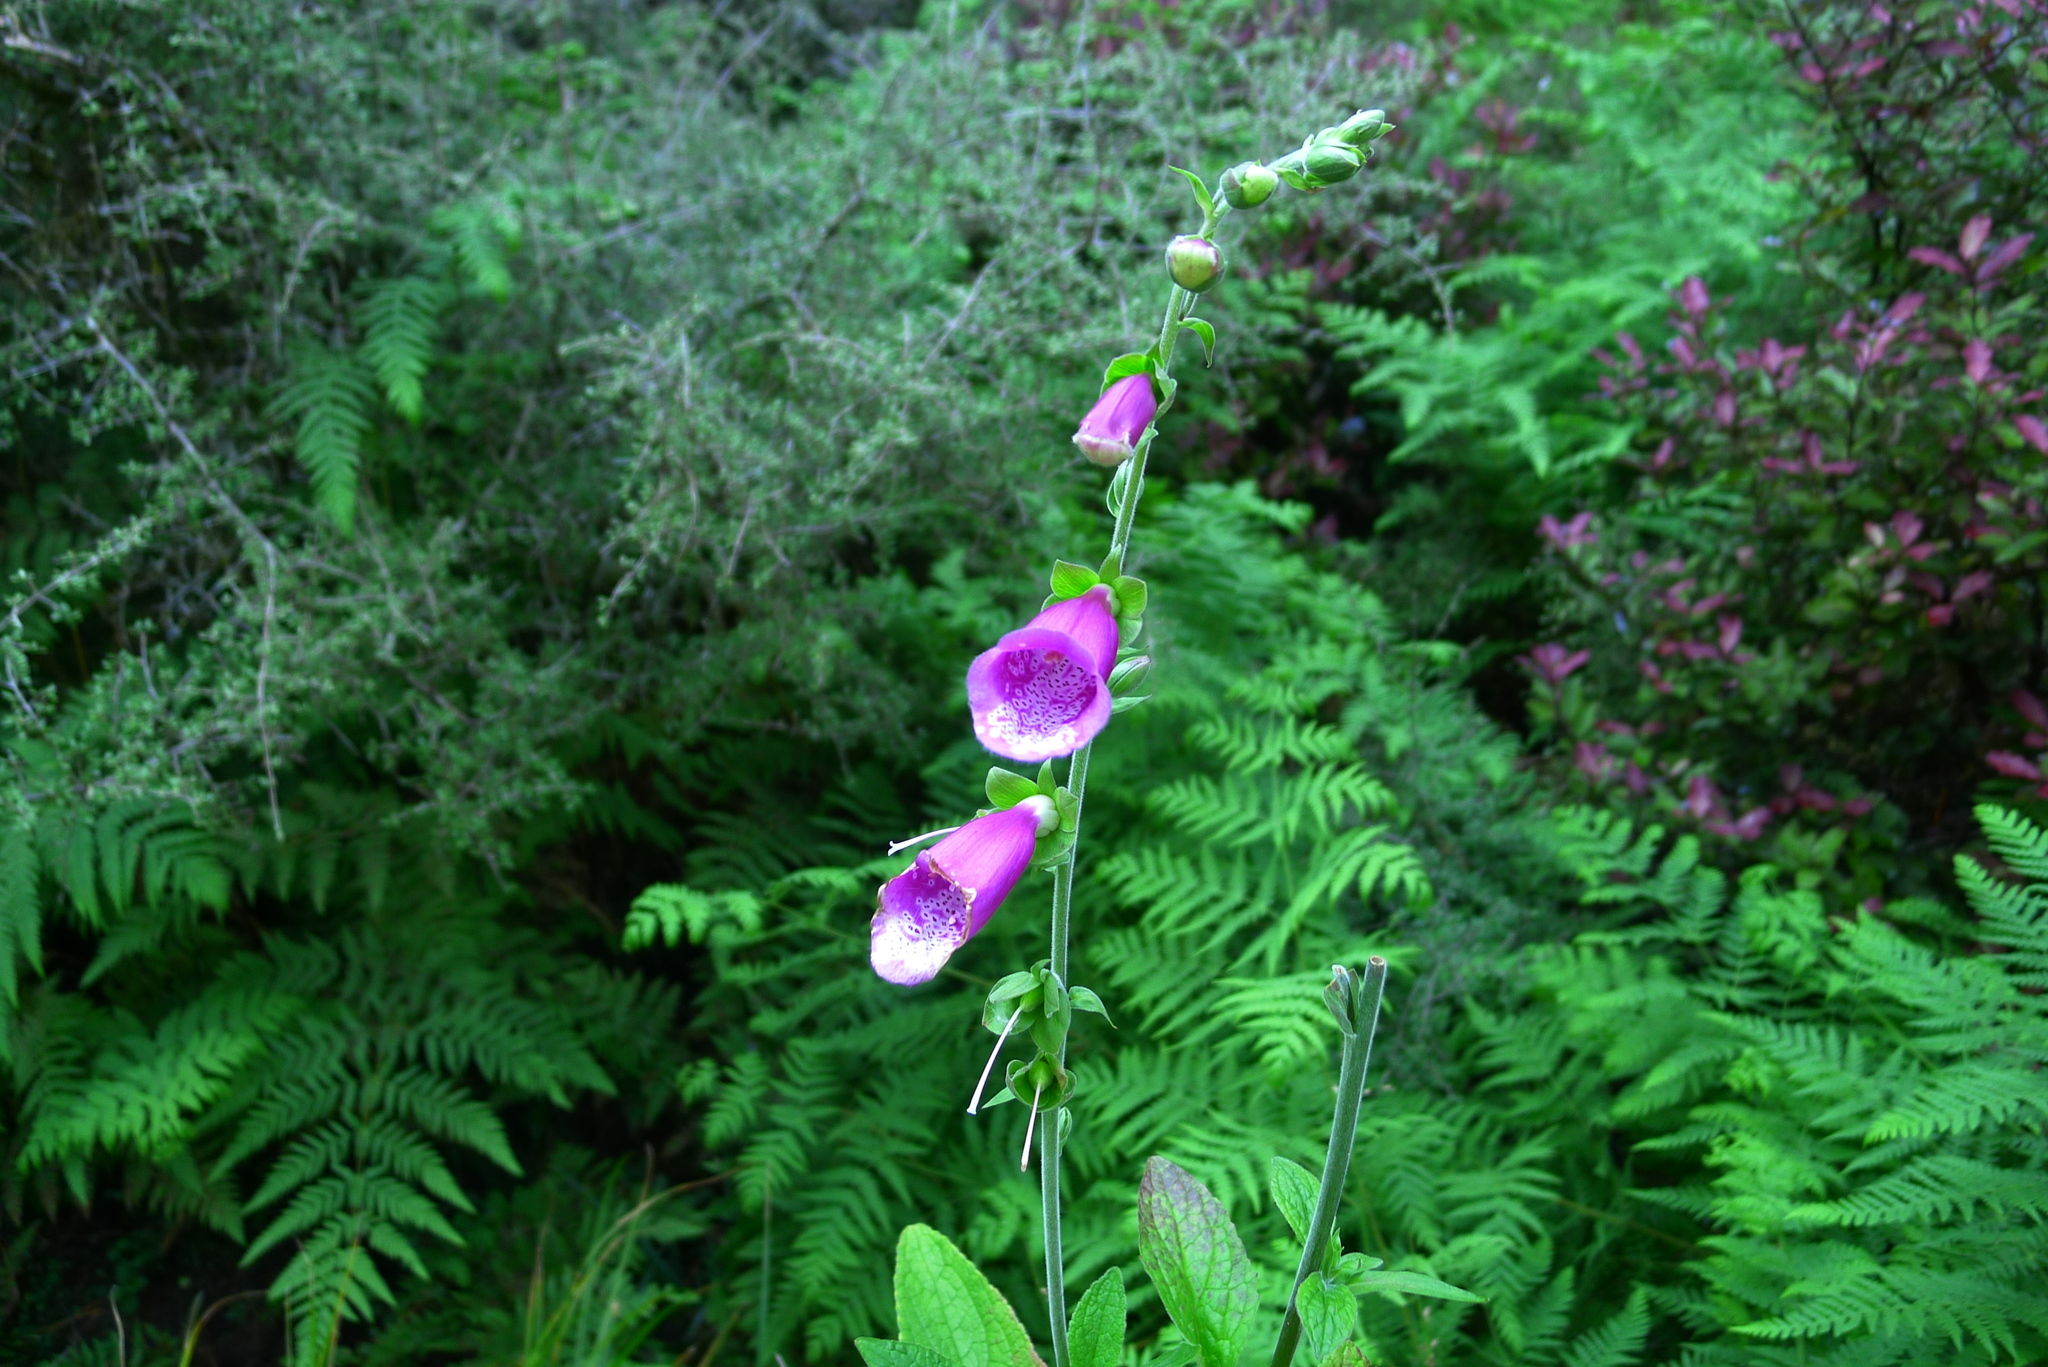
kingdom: Plantae
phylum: Tracheophyta
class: Magnoliopsida
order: Lamiales
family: Plantaginaceae
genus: Digitalis
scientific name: Digitalis purpurea
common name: Foxglove
